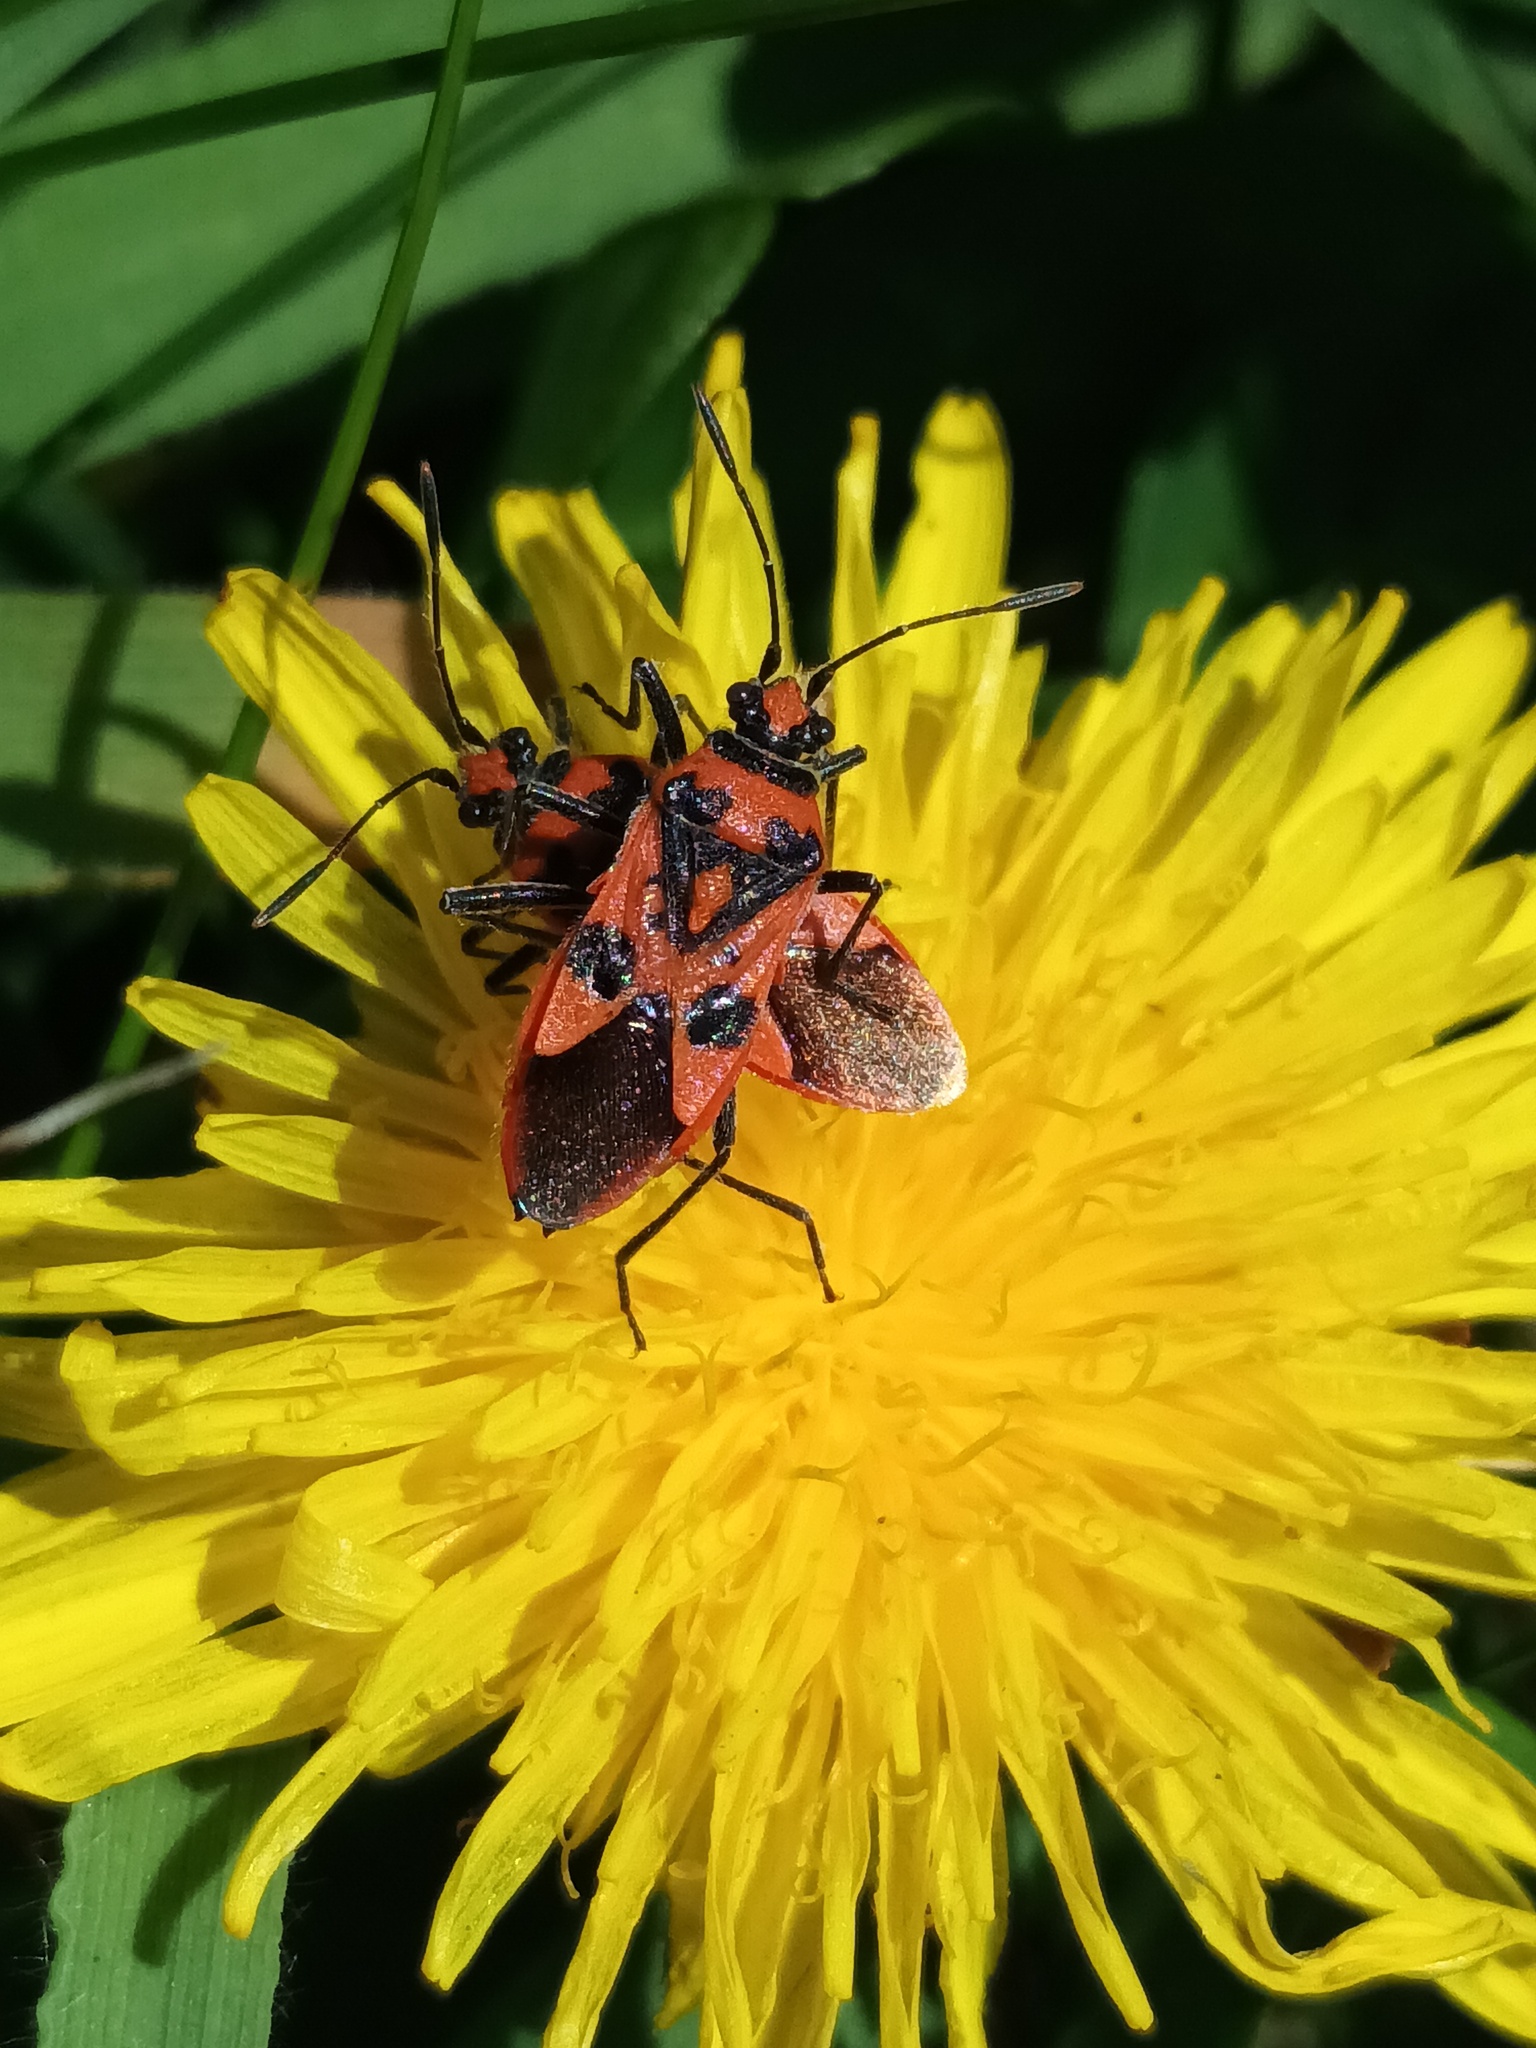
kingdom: Animalia
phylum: Arthropoda
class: Insecta
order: Hemiptera
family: Rhopalidae
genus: Corizus
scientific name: Corizus hyoscyami
